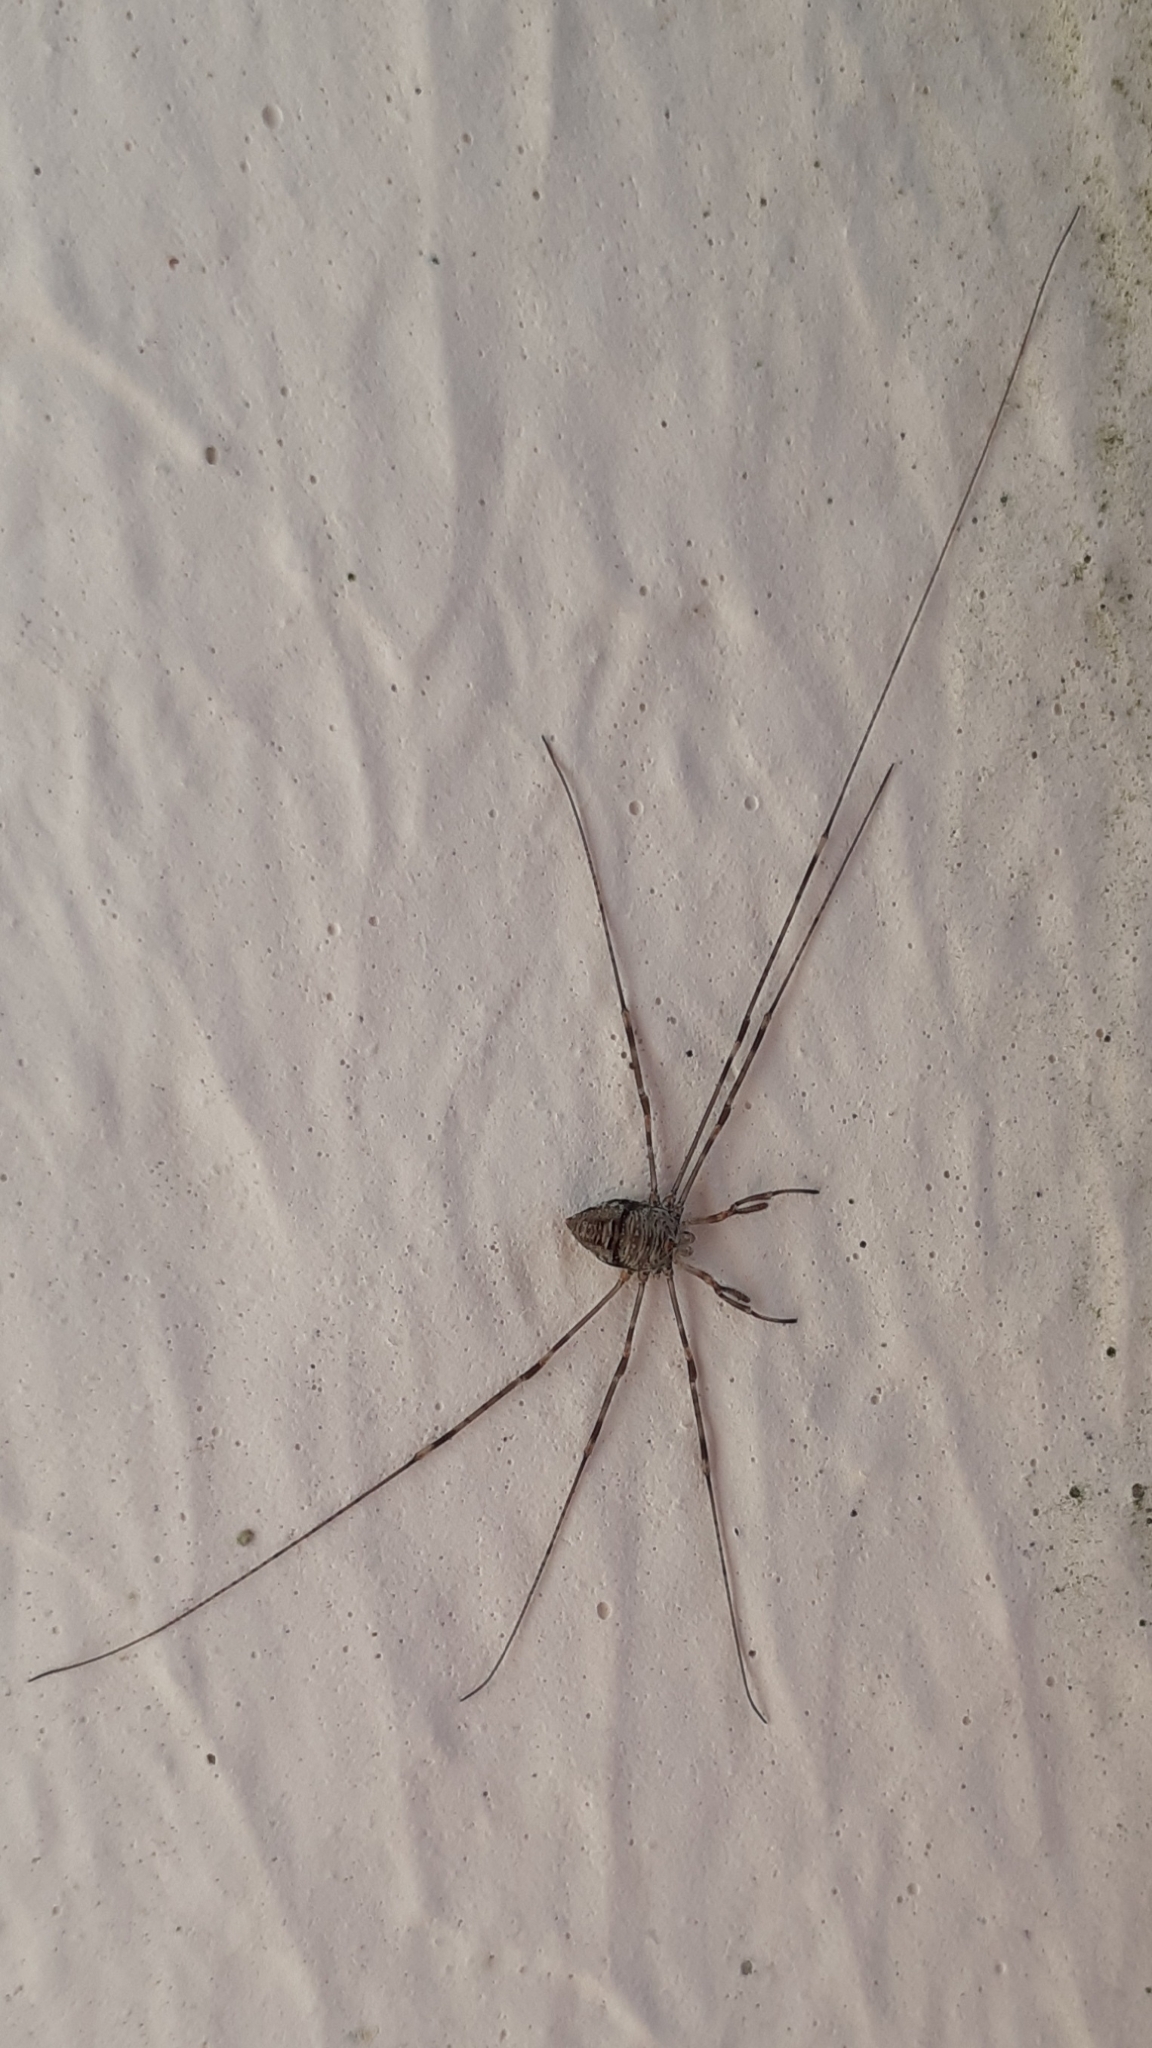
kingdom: Animalia
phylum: Arthropoda
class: Arachnida
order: Opiliones
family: Phalangiidae
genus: Dicranopalpus
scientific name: Dicranopalpus ramosus
